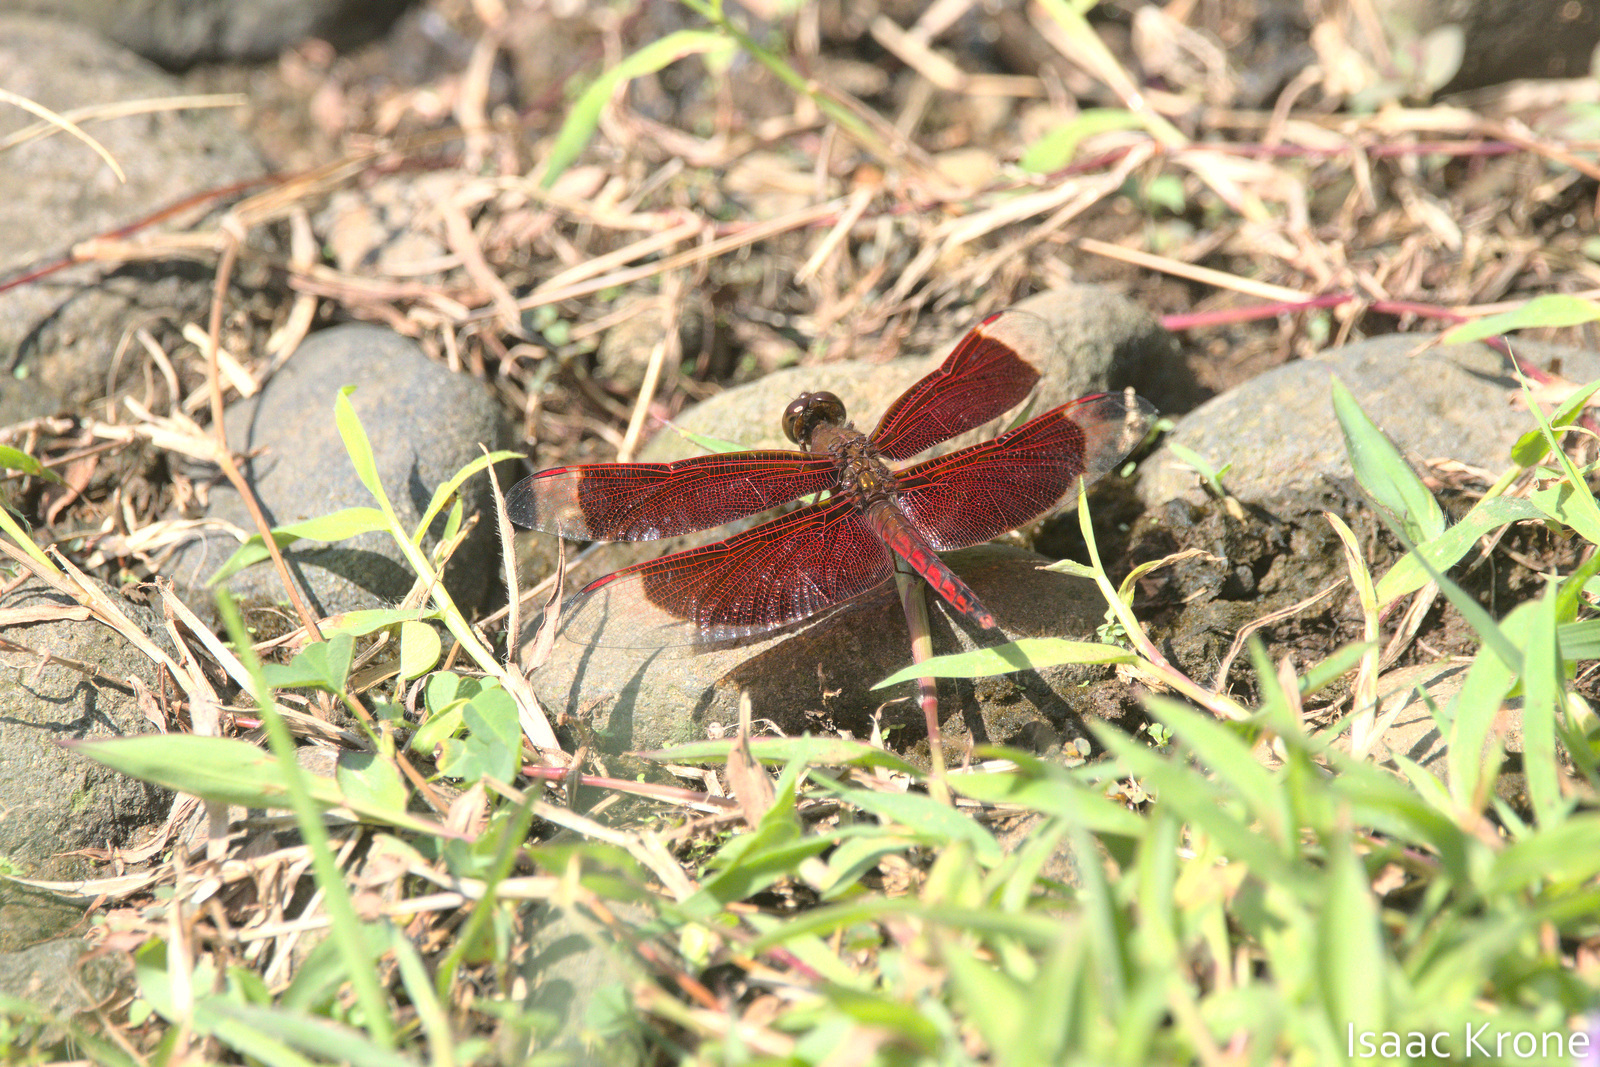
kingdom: Animalia
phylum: Arthropoda
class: Insecta
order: Odonata
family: Libellulidae
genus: Neurothemis
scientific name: Neurothemis ramburii
